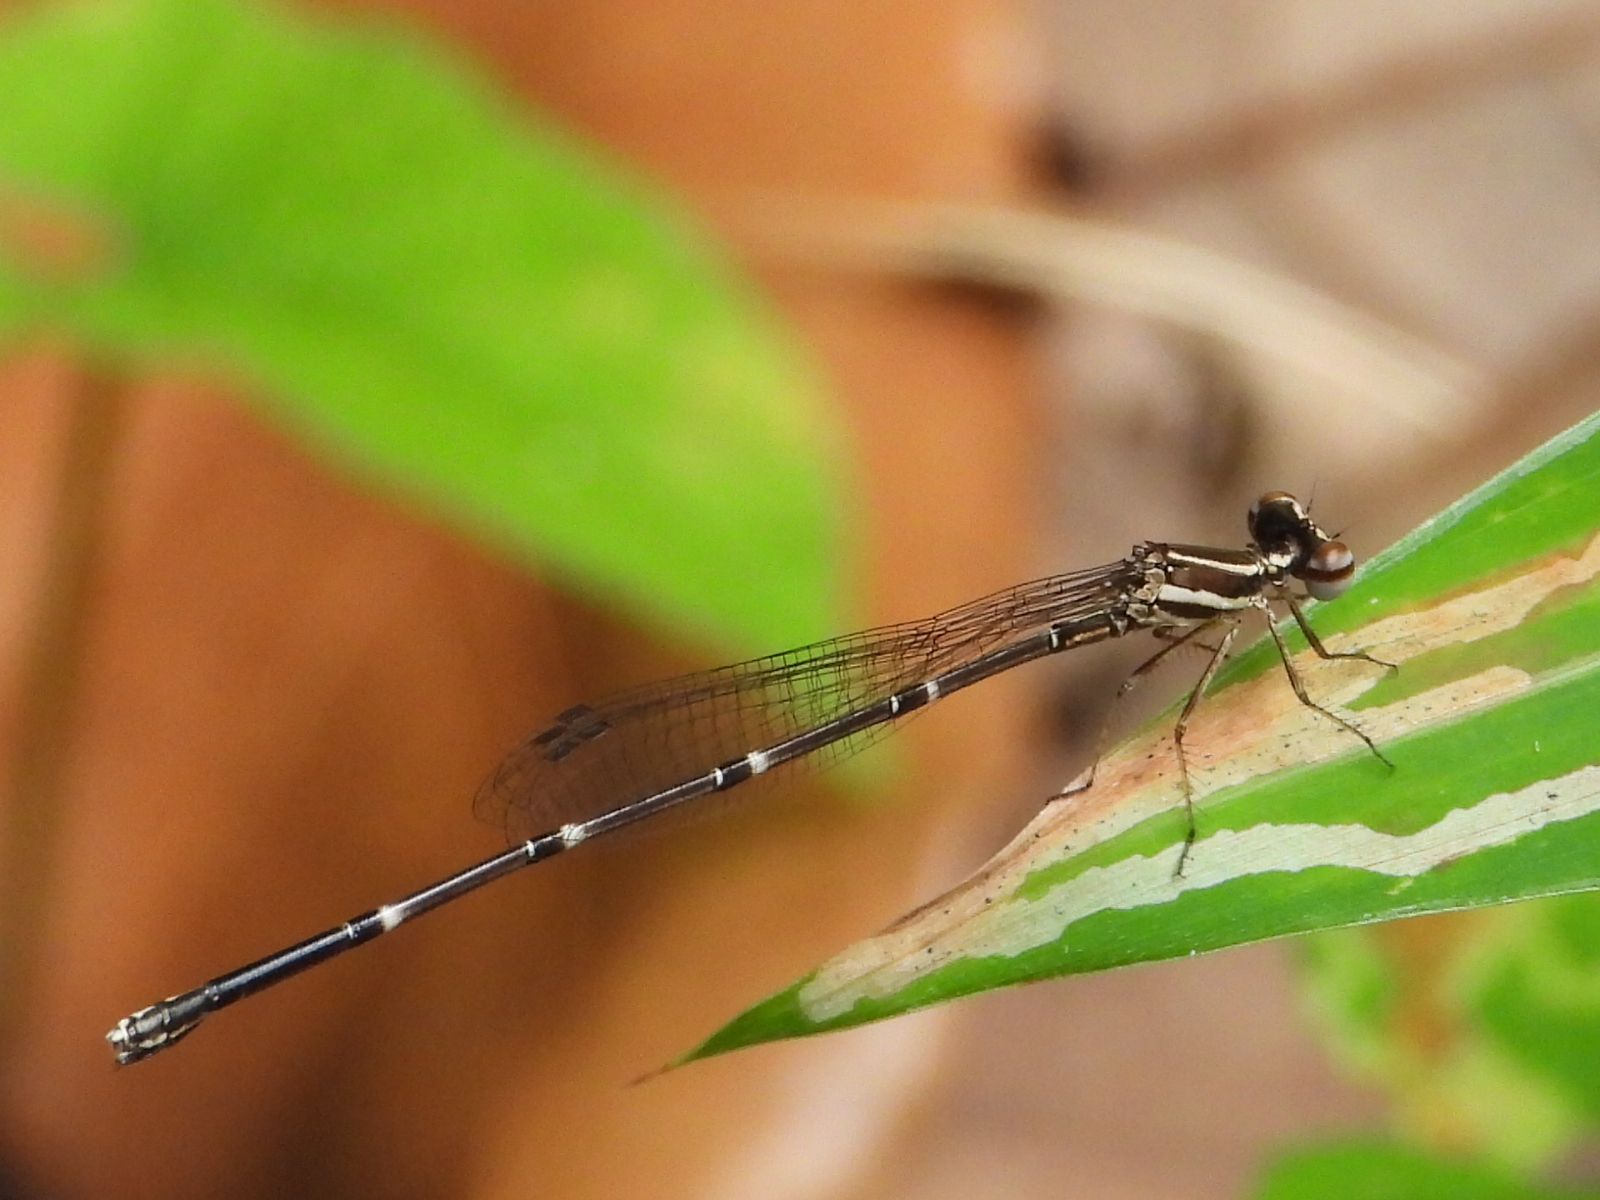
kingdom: Animalia
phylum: Arthropoda
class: Insecta
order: Odonata
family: Platycnemididae
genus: Prodasineura
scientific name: Prodasineura autumnalis
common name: Black threadtail
